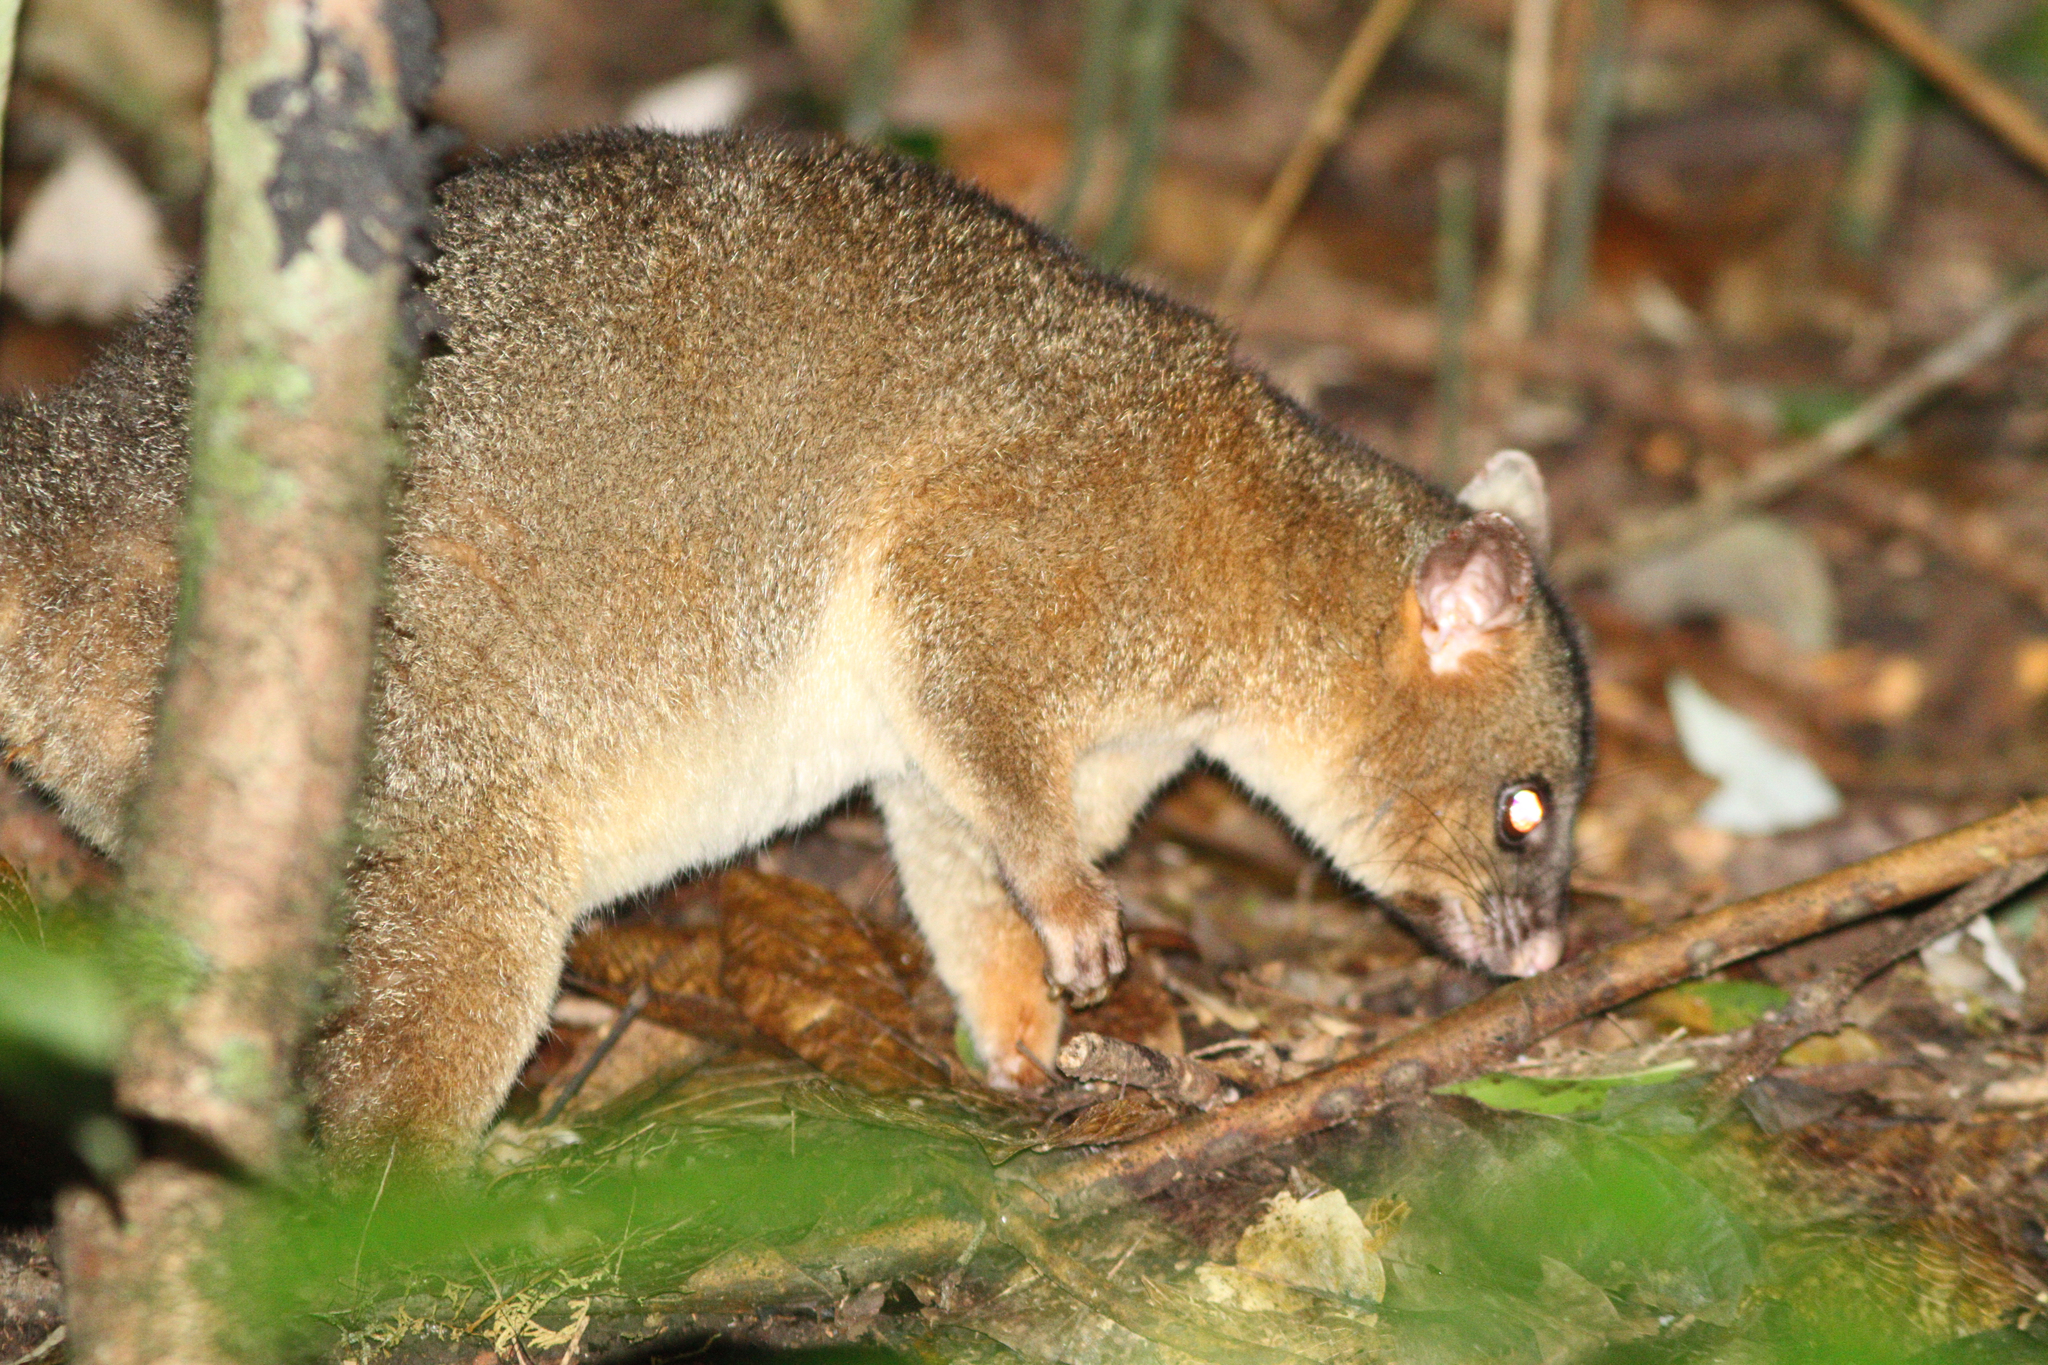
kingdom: Animalia
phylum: Chordata
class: Mammalia
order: Diprotodontia
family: Phalangeridae
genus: Trichosurus
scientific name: Trichosurus vulpecula
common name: Common brushtail
